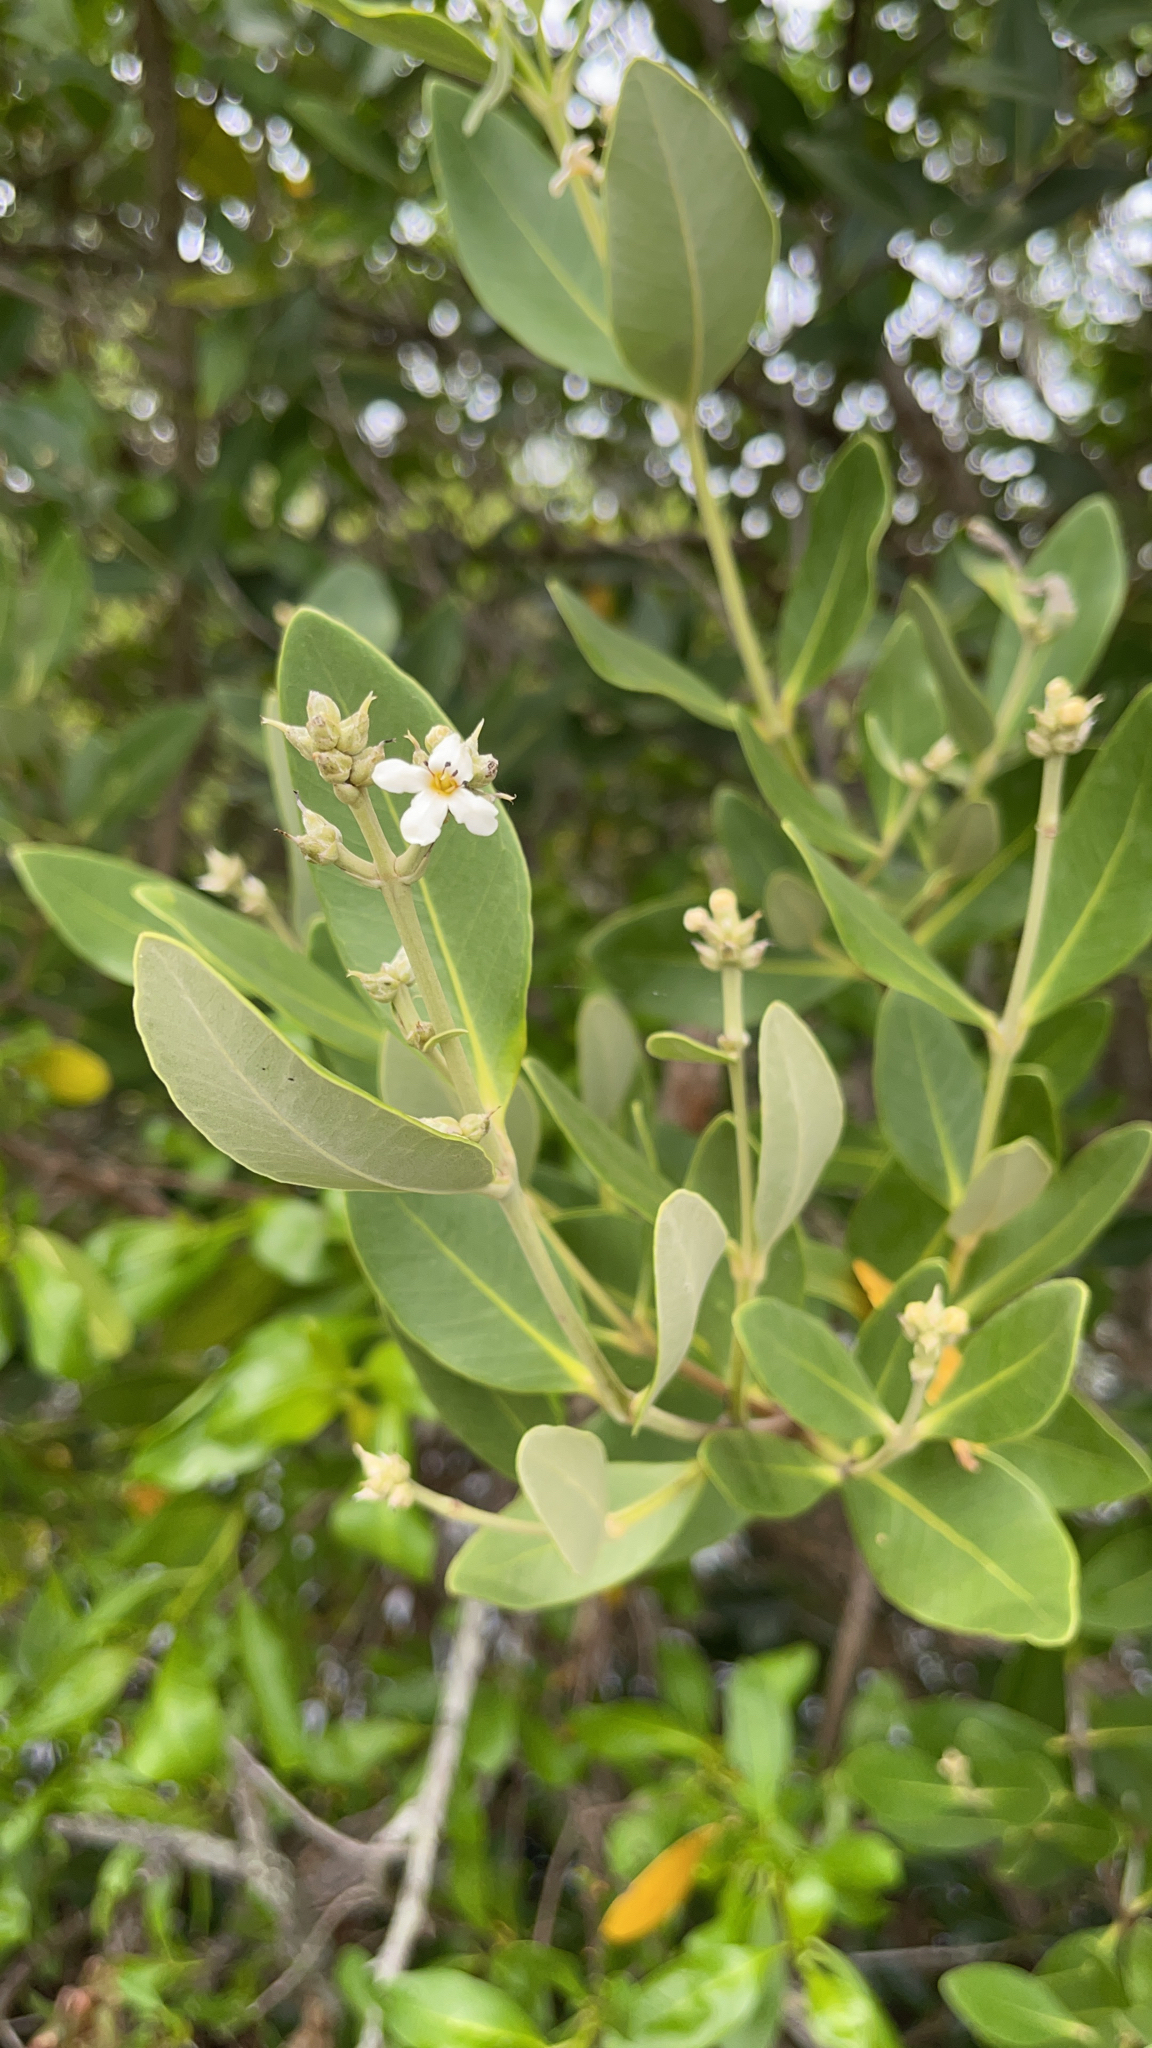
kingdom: Plantae
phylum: Tracheophyta
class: Magnoliopsida
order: Lamiales
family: Acanthaceae
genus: Avicennia
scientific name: Avicennia germinans
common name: Black mangrove
